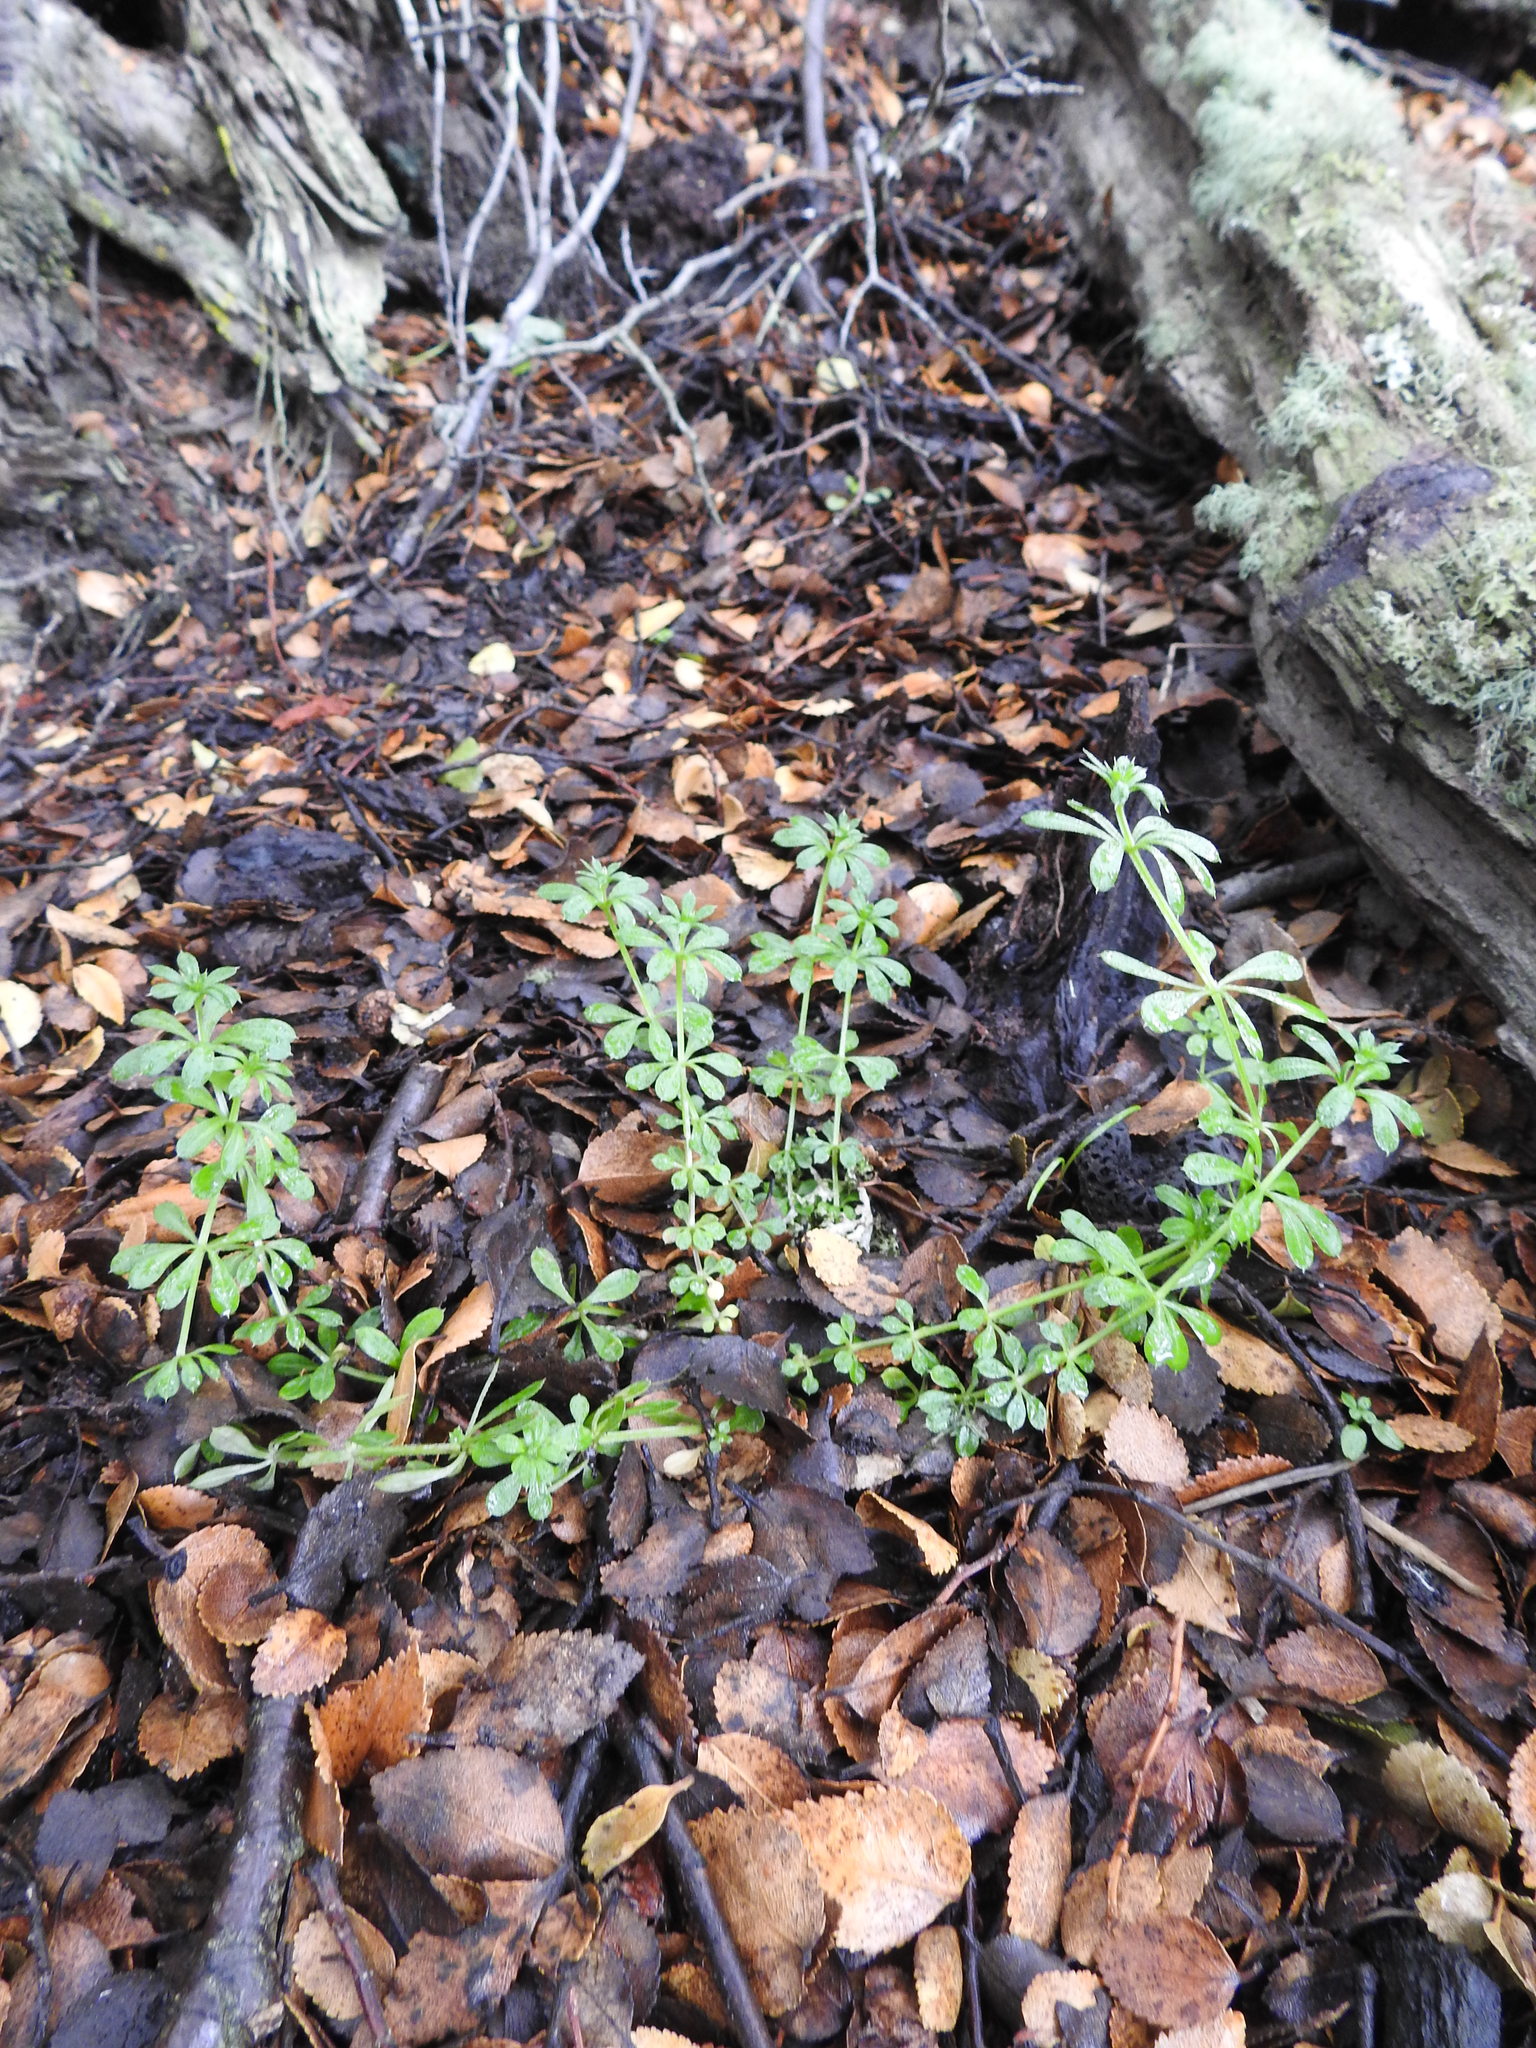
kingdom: Plantae
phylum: Tracheophyta
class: Magnoliopsida
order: Gentianales
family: Rubiaceae
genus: Galium
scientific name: Galium aparine
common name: Cleavers
